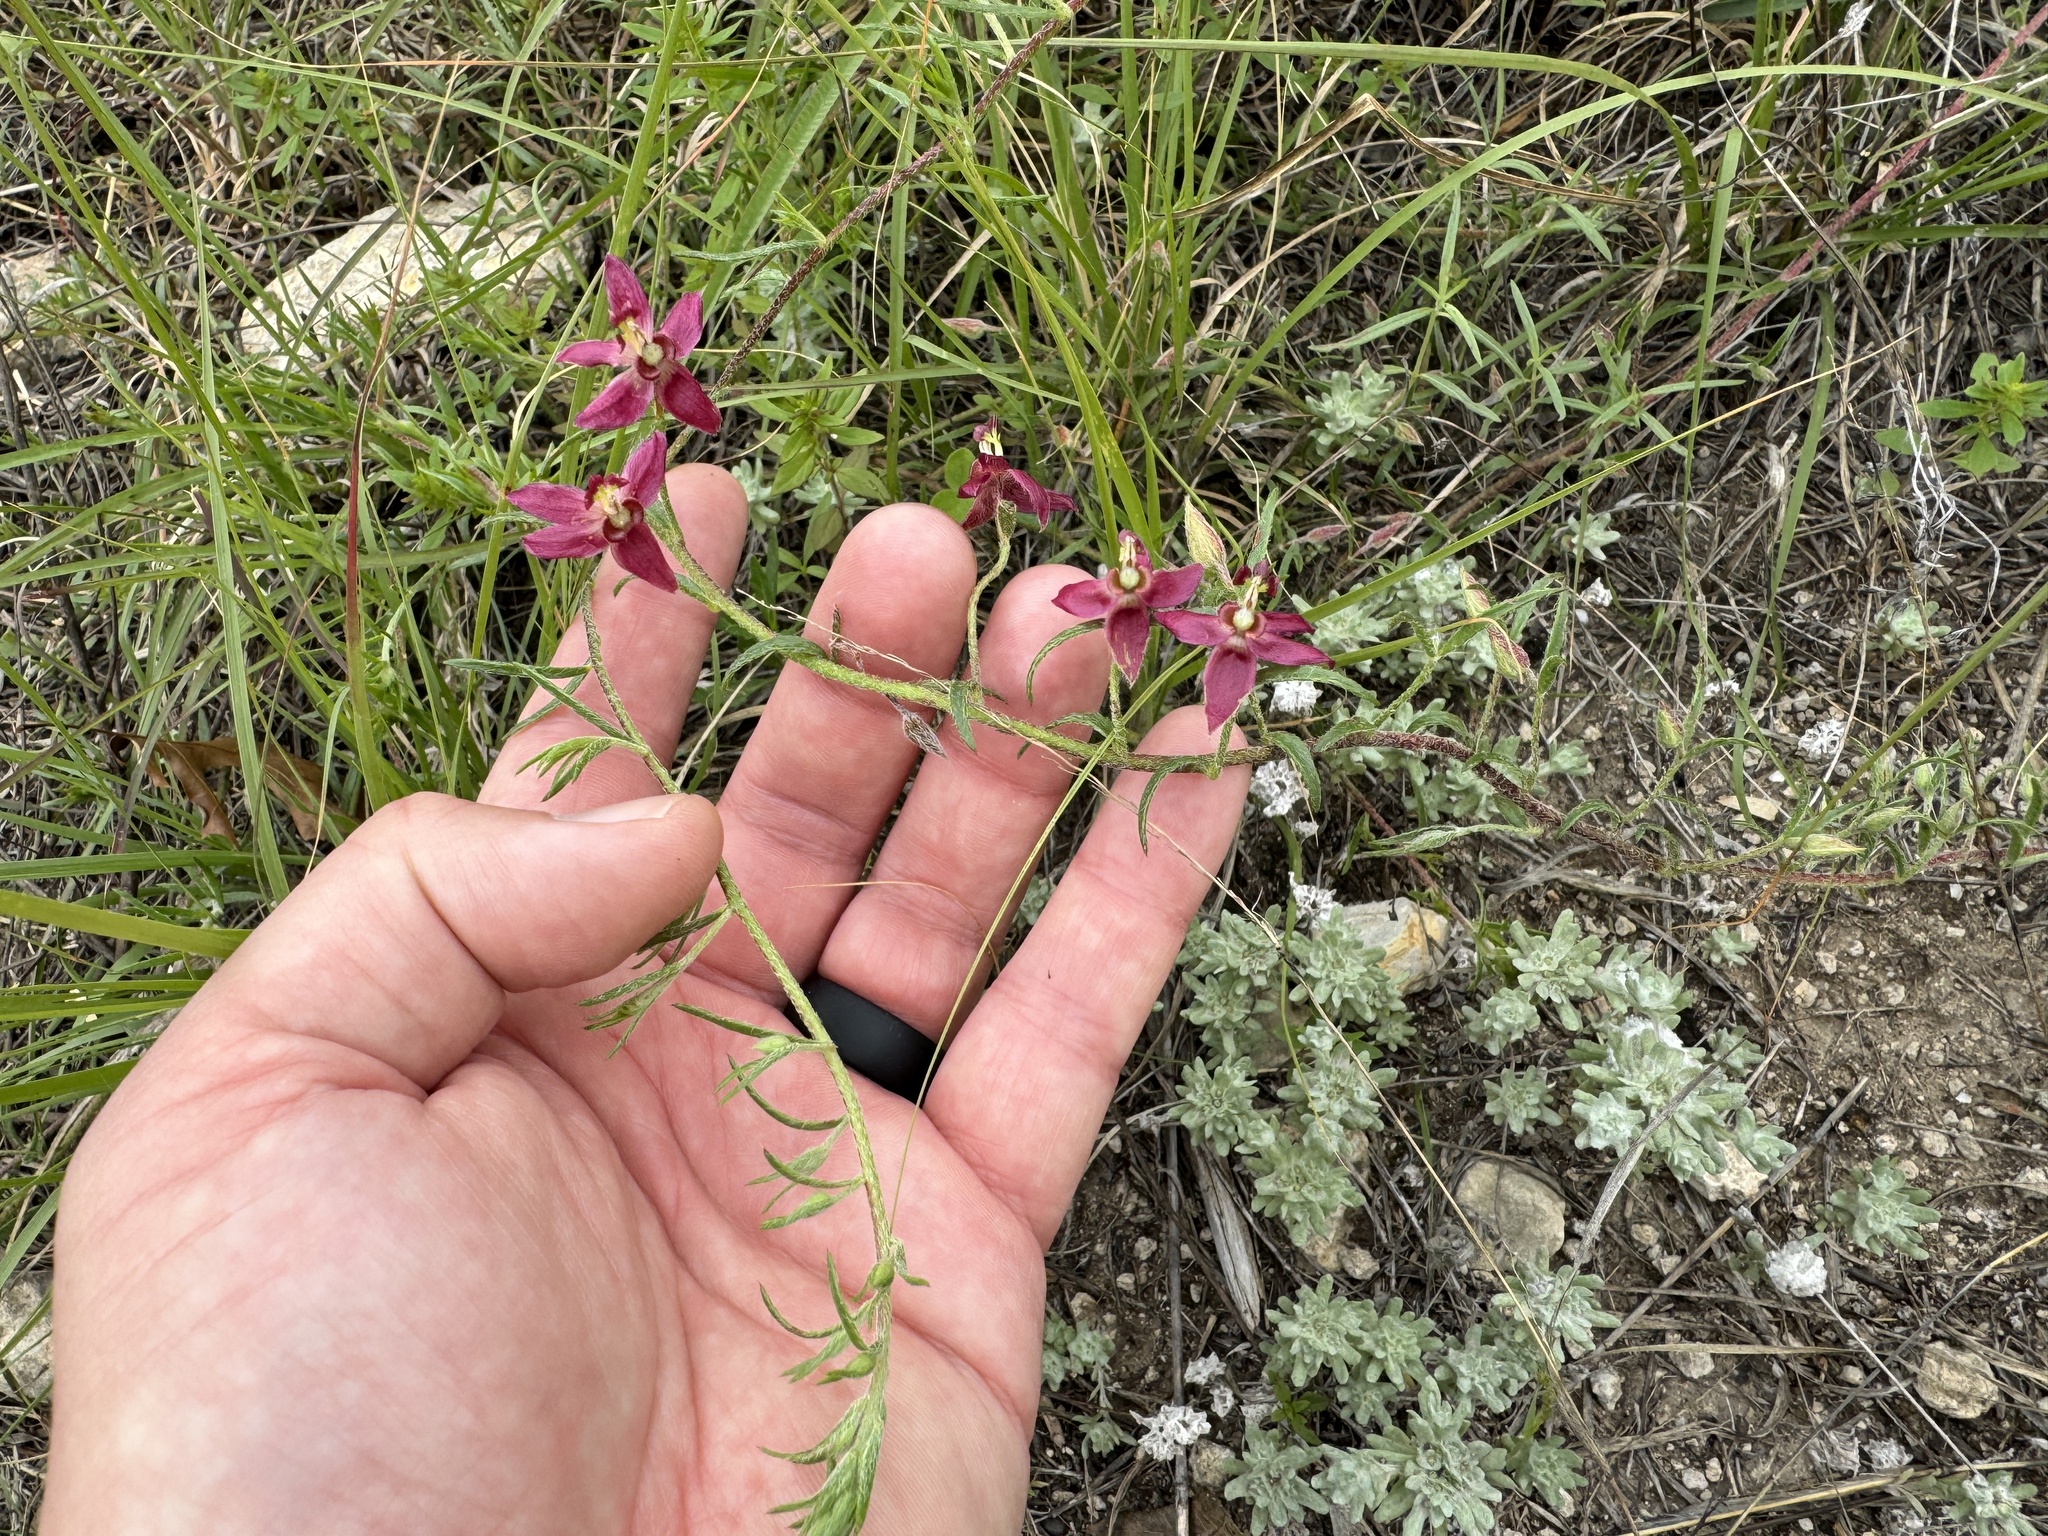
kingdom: Plantae
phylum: Tracheophyta
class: Magnoliopsida
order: Zygophyllales
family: Krameriaceae
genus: Krameria
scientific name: Krameria lanceolata
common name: Ratany
